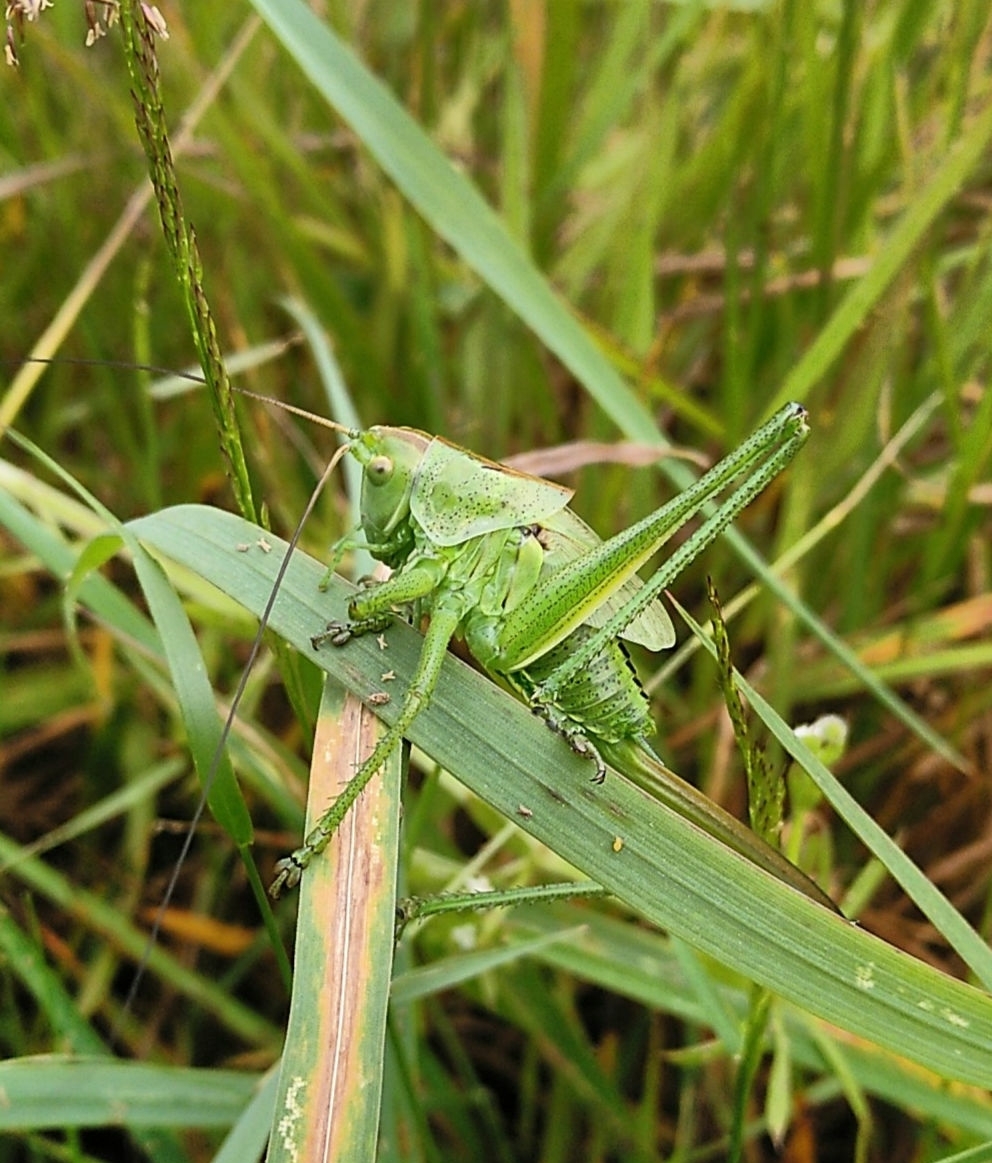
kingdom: Animalia
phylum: Arthropoda
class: Insecta
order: Orthoptera
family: Tettigoniidae
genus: Tettigonia
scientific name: Tettigonia viridissima
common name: Great green bush-cricket
